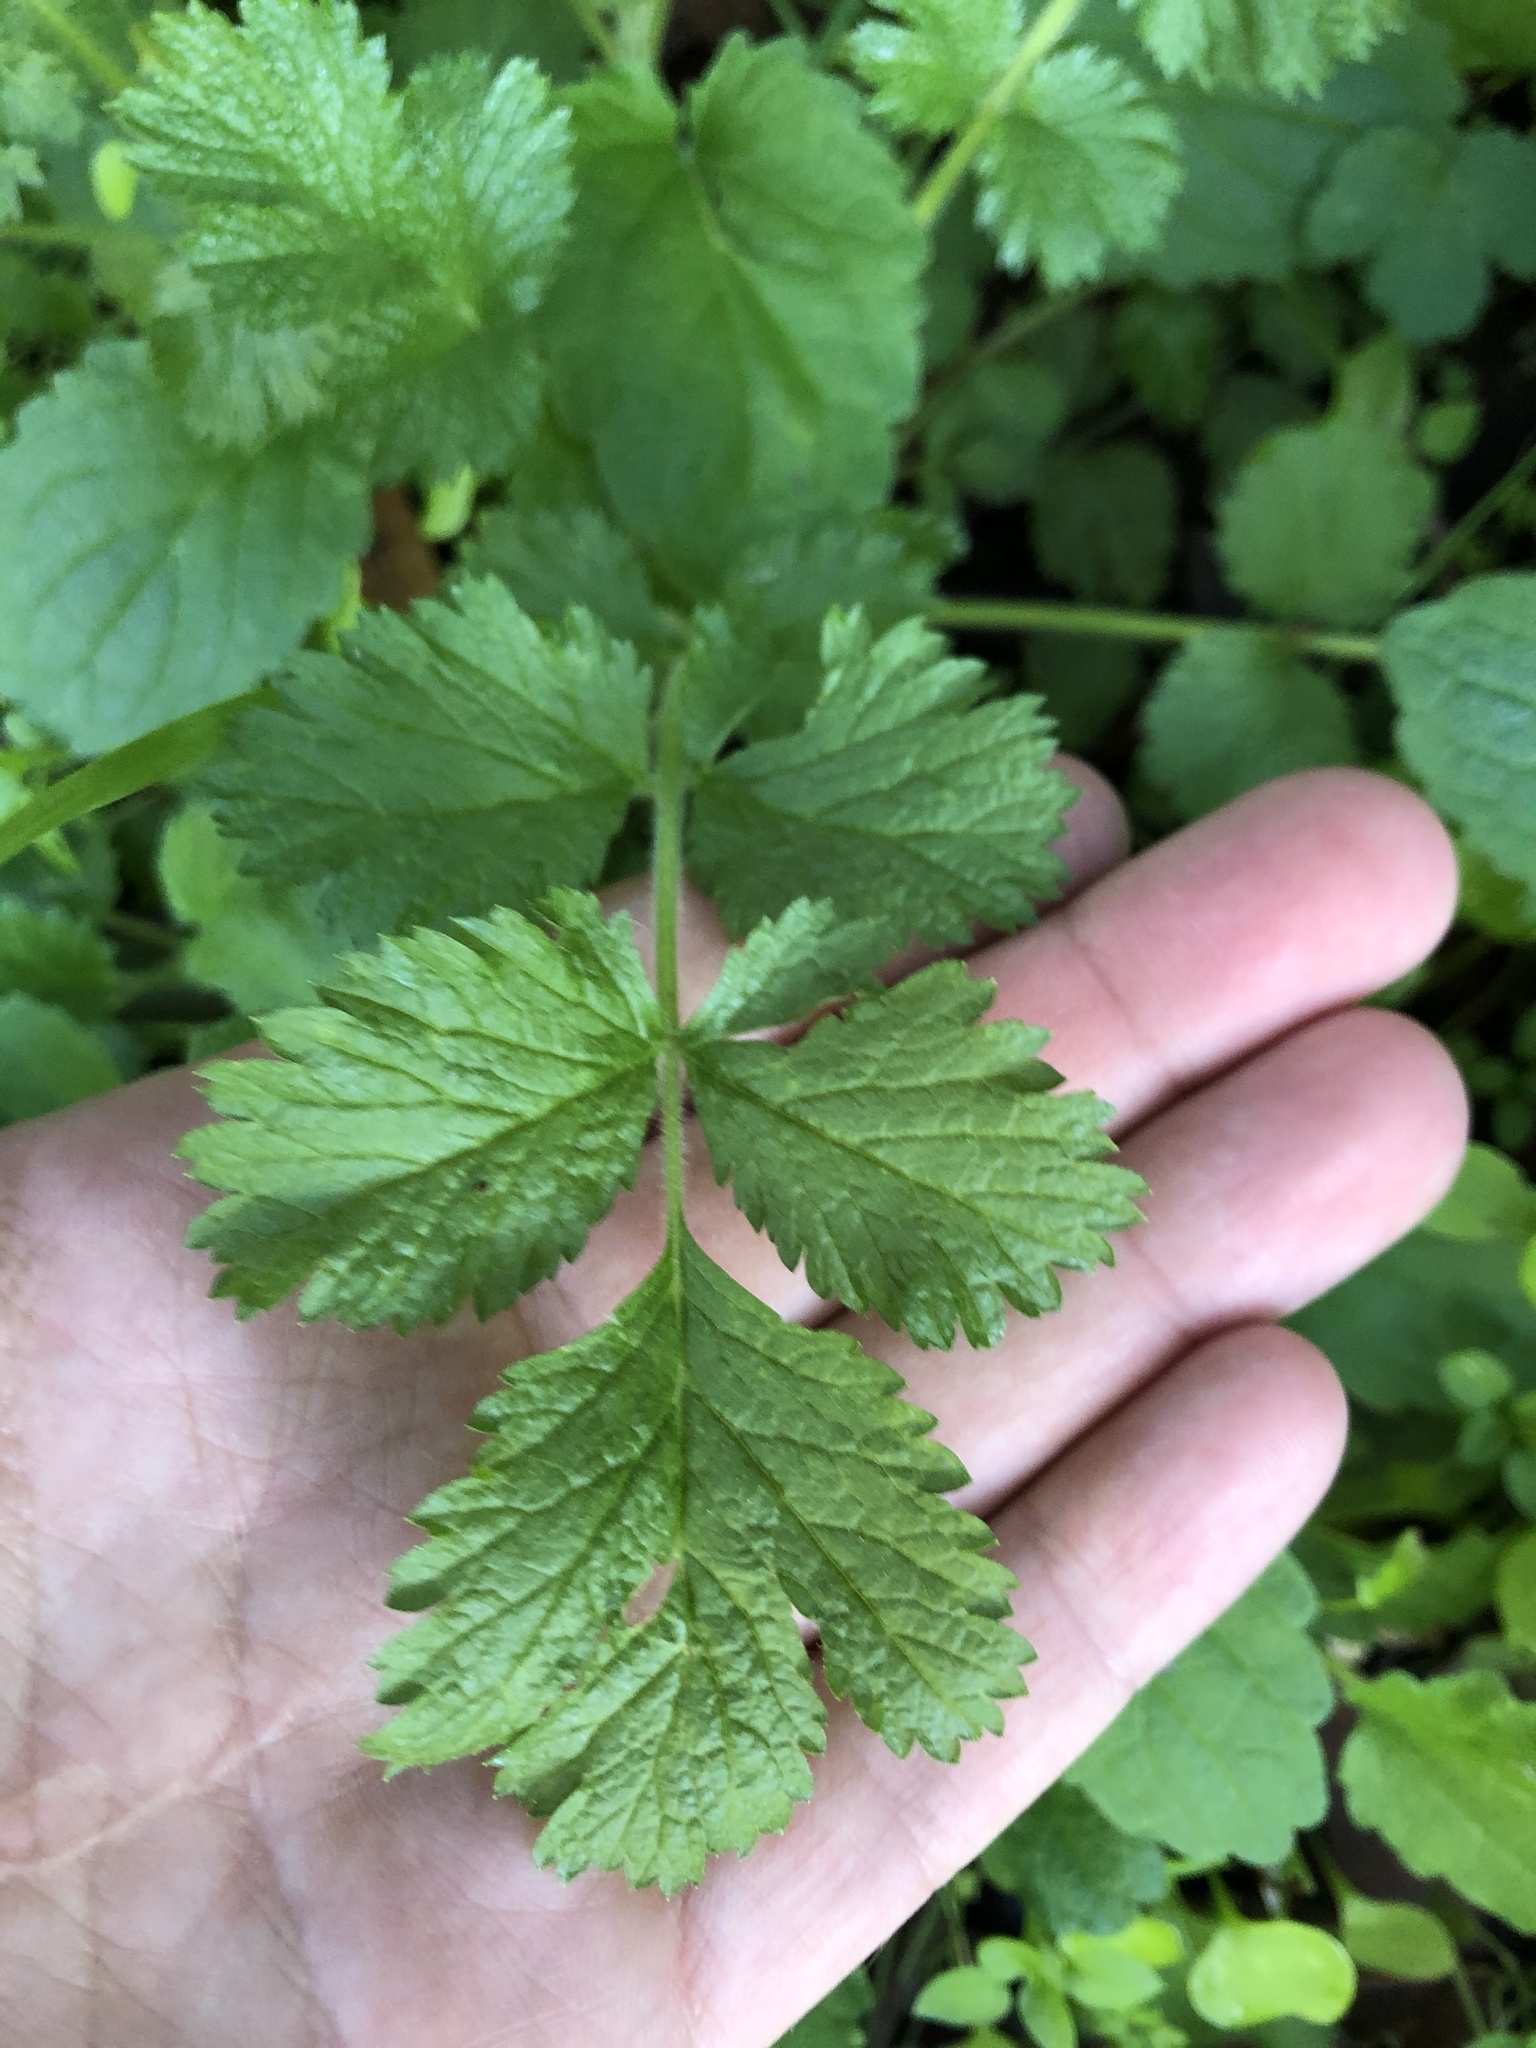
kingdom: Plantae
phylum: Tracheophyta
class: Magnoliopsida
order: Rosales
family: Rosaceae
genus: Drymocallis
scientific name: Drymocallis glandulosa
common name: Sticky cinquefoil
